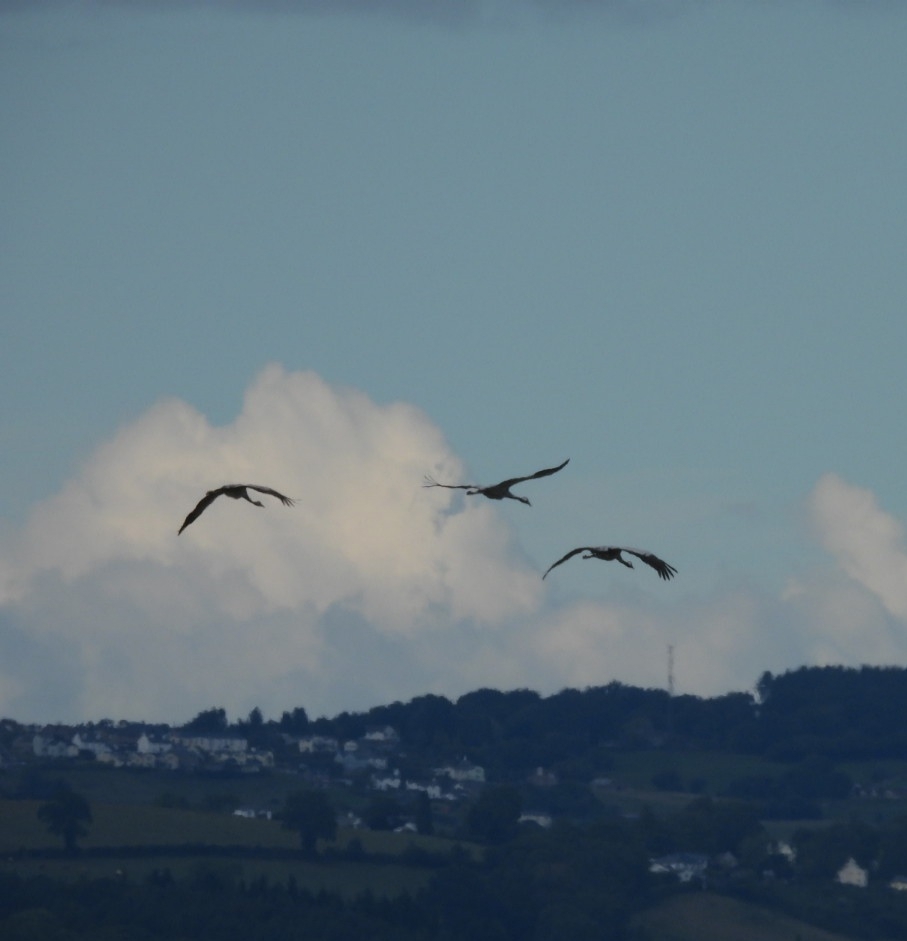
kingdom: Animalia
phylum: Chordata
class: Aves
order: Gruiformes
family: Gruidae
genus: Grus
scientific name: Grus grus
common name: Common crane
